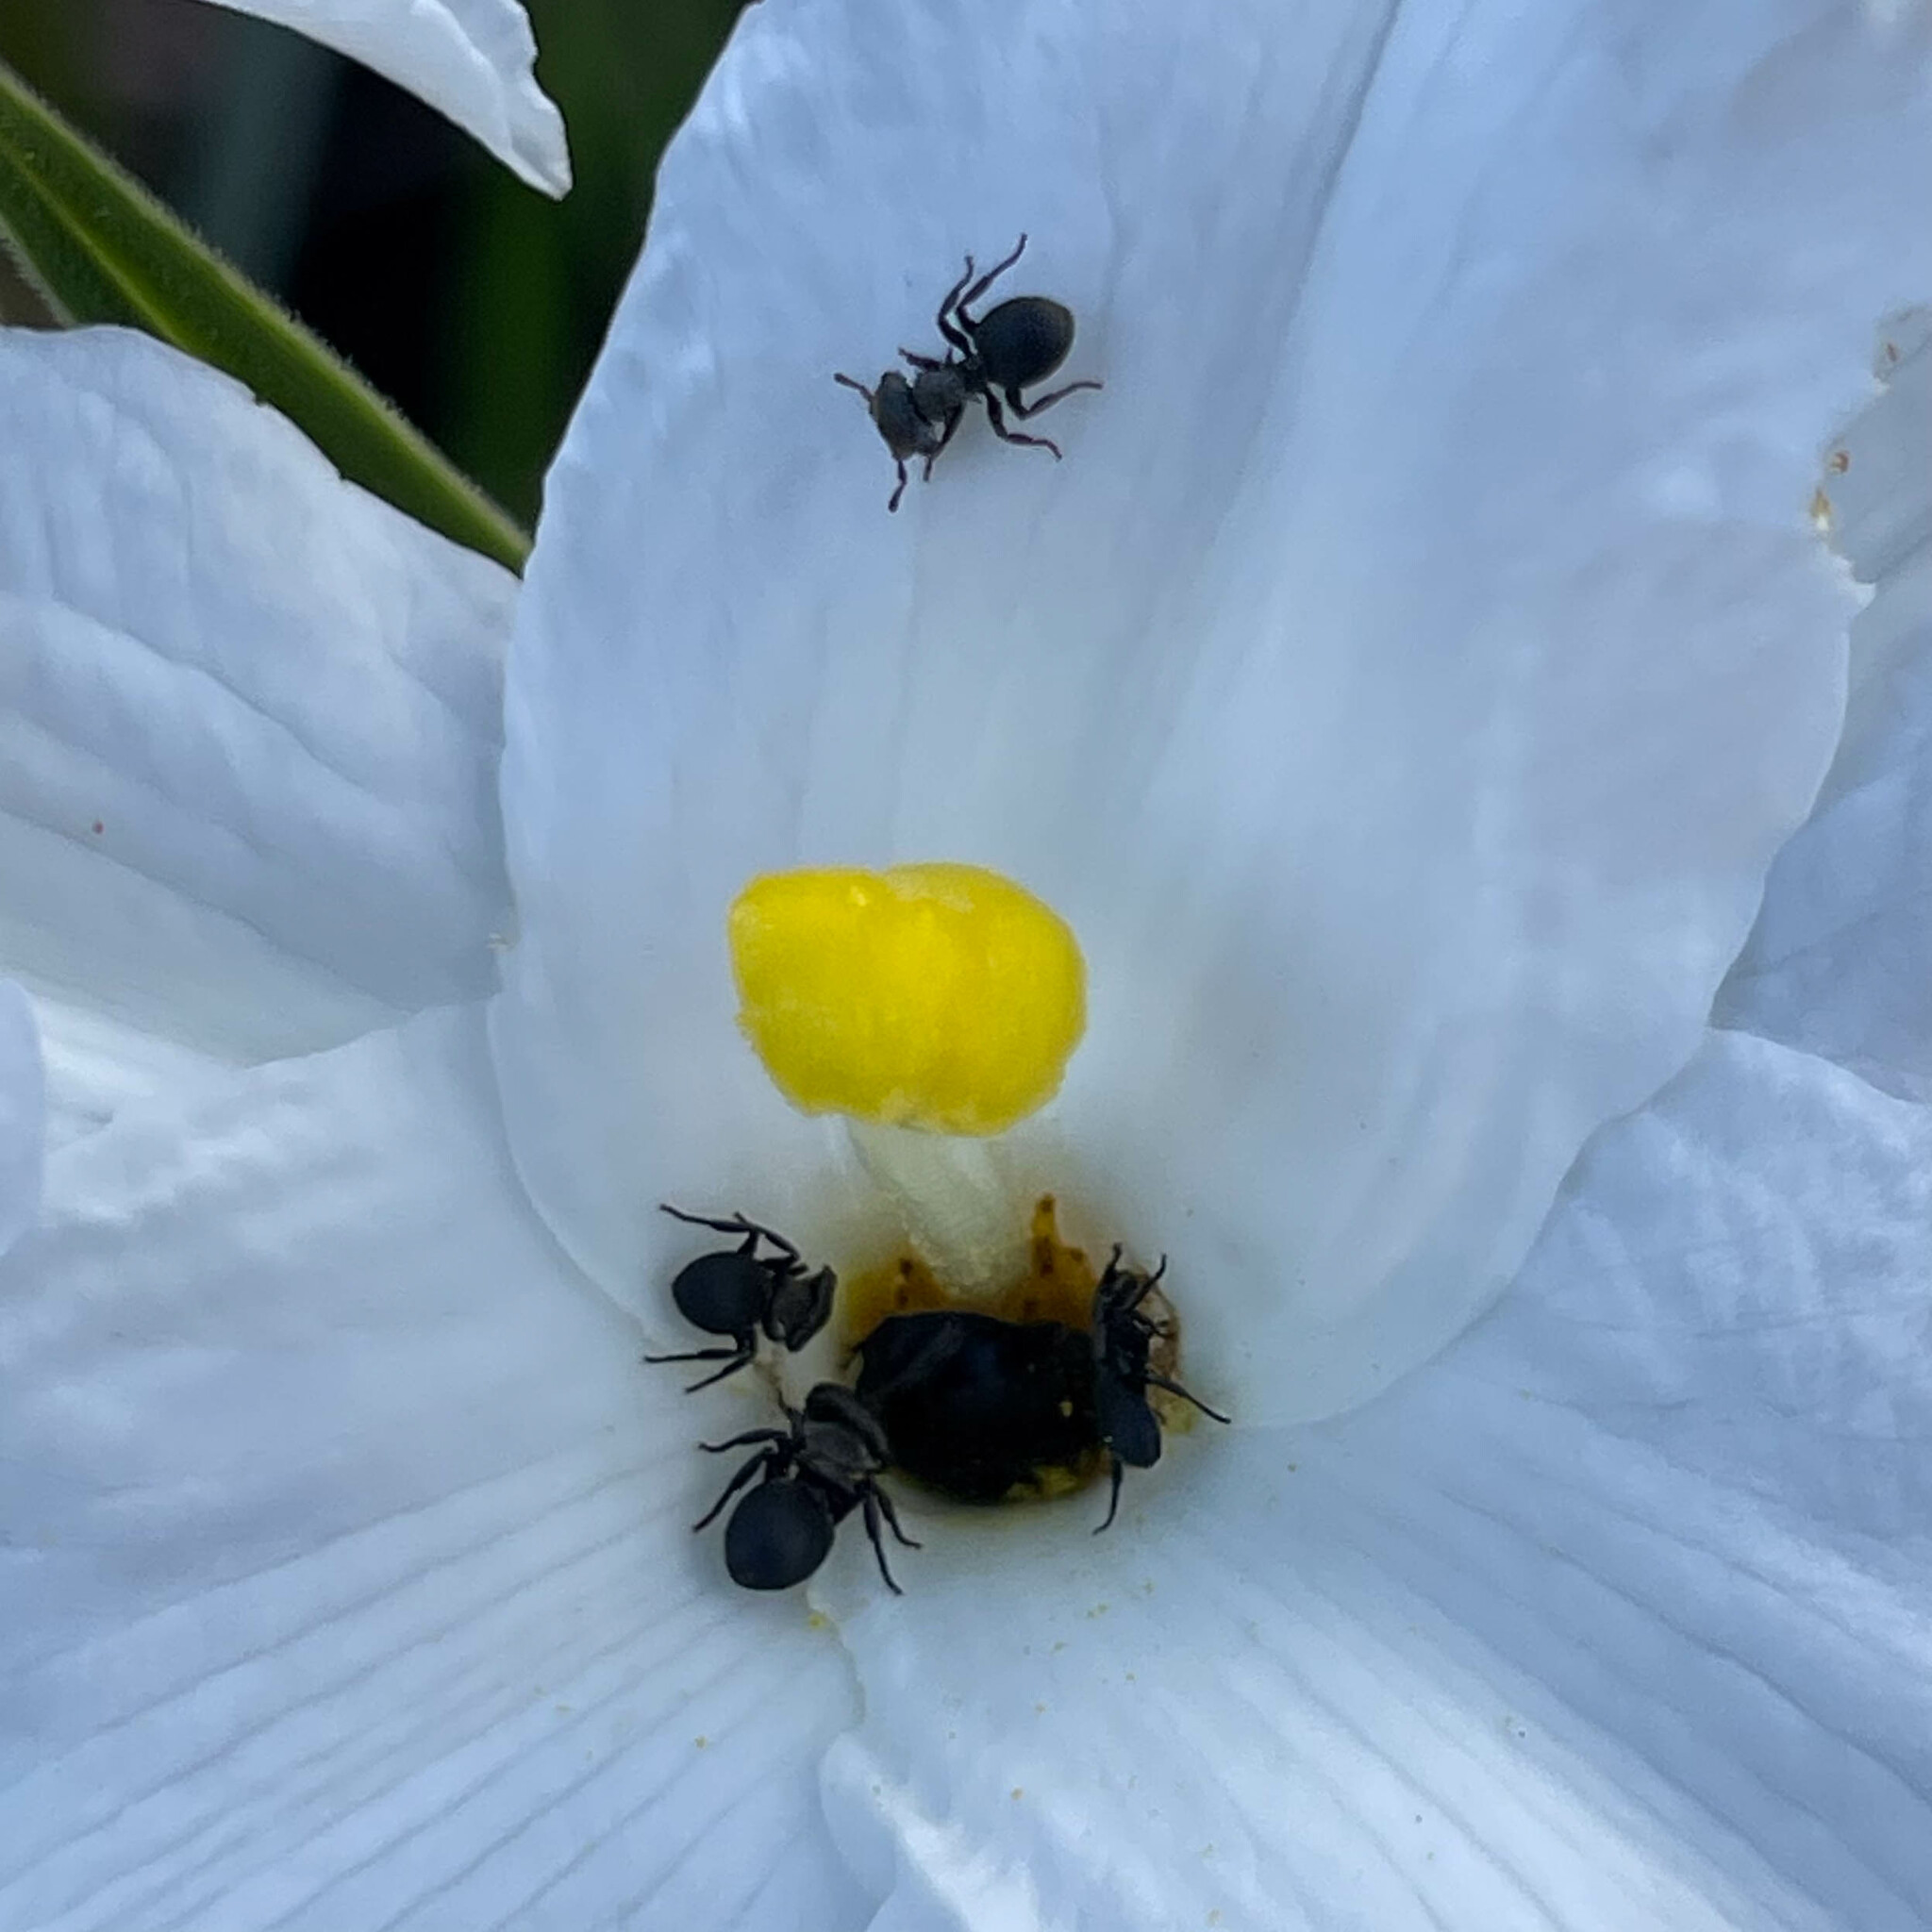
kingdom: Animalia
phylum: Arthropoda
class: Insecta
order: Hymenoptera
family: Formicidae
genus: Cephalotes
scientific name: Cephalotes pusillus
